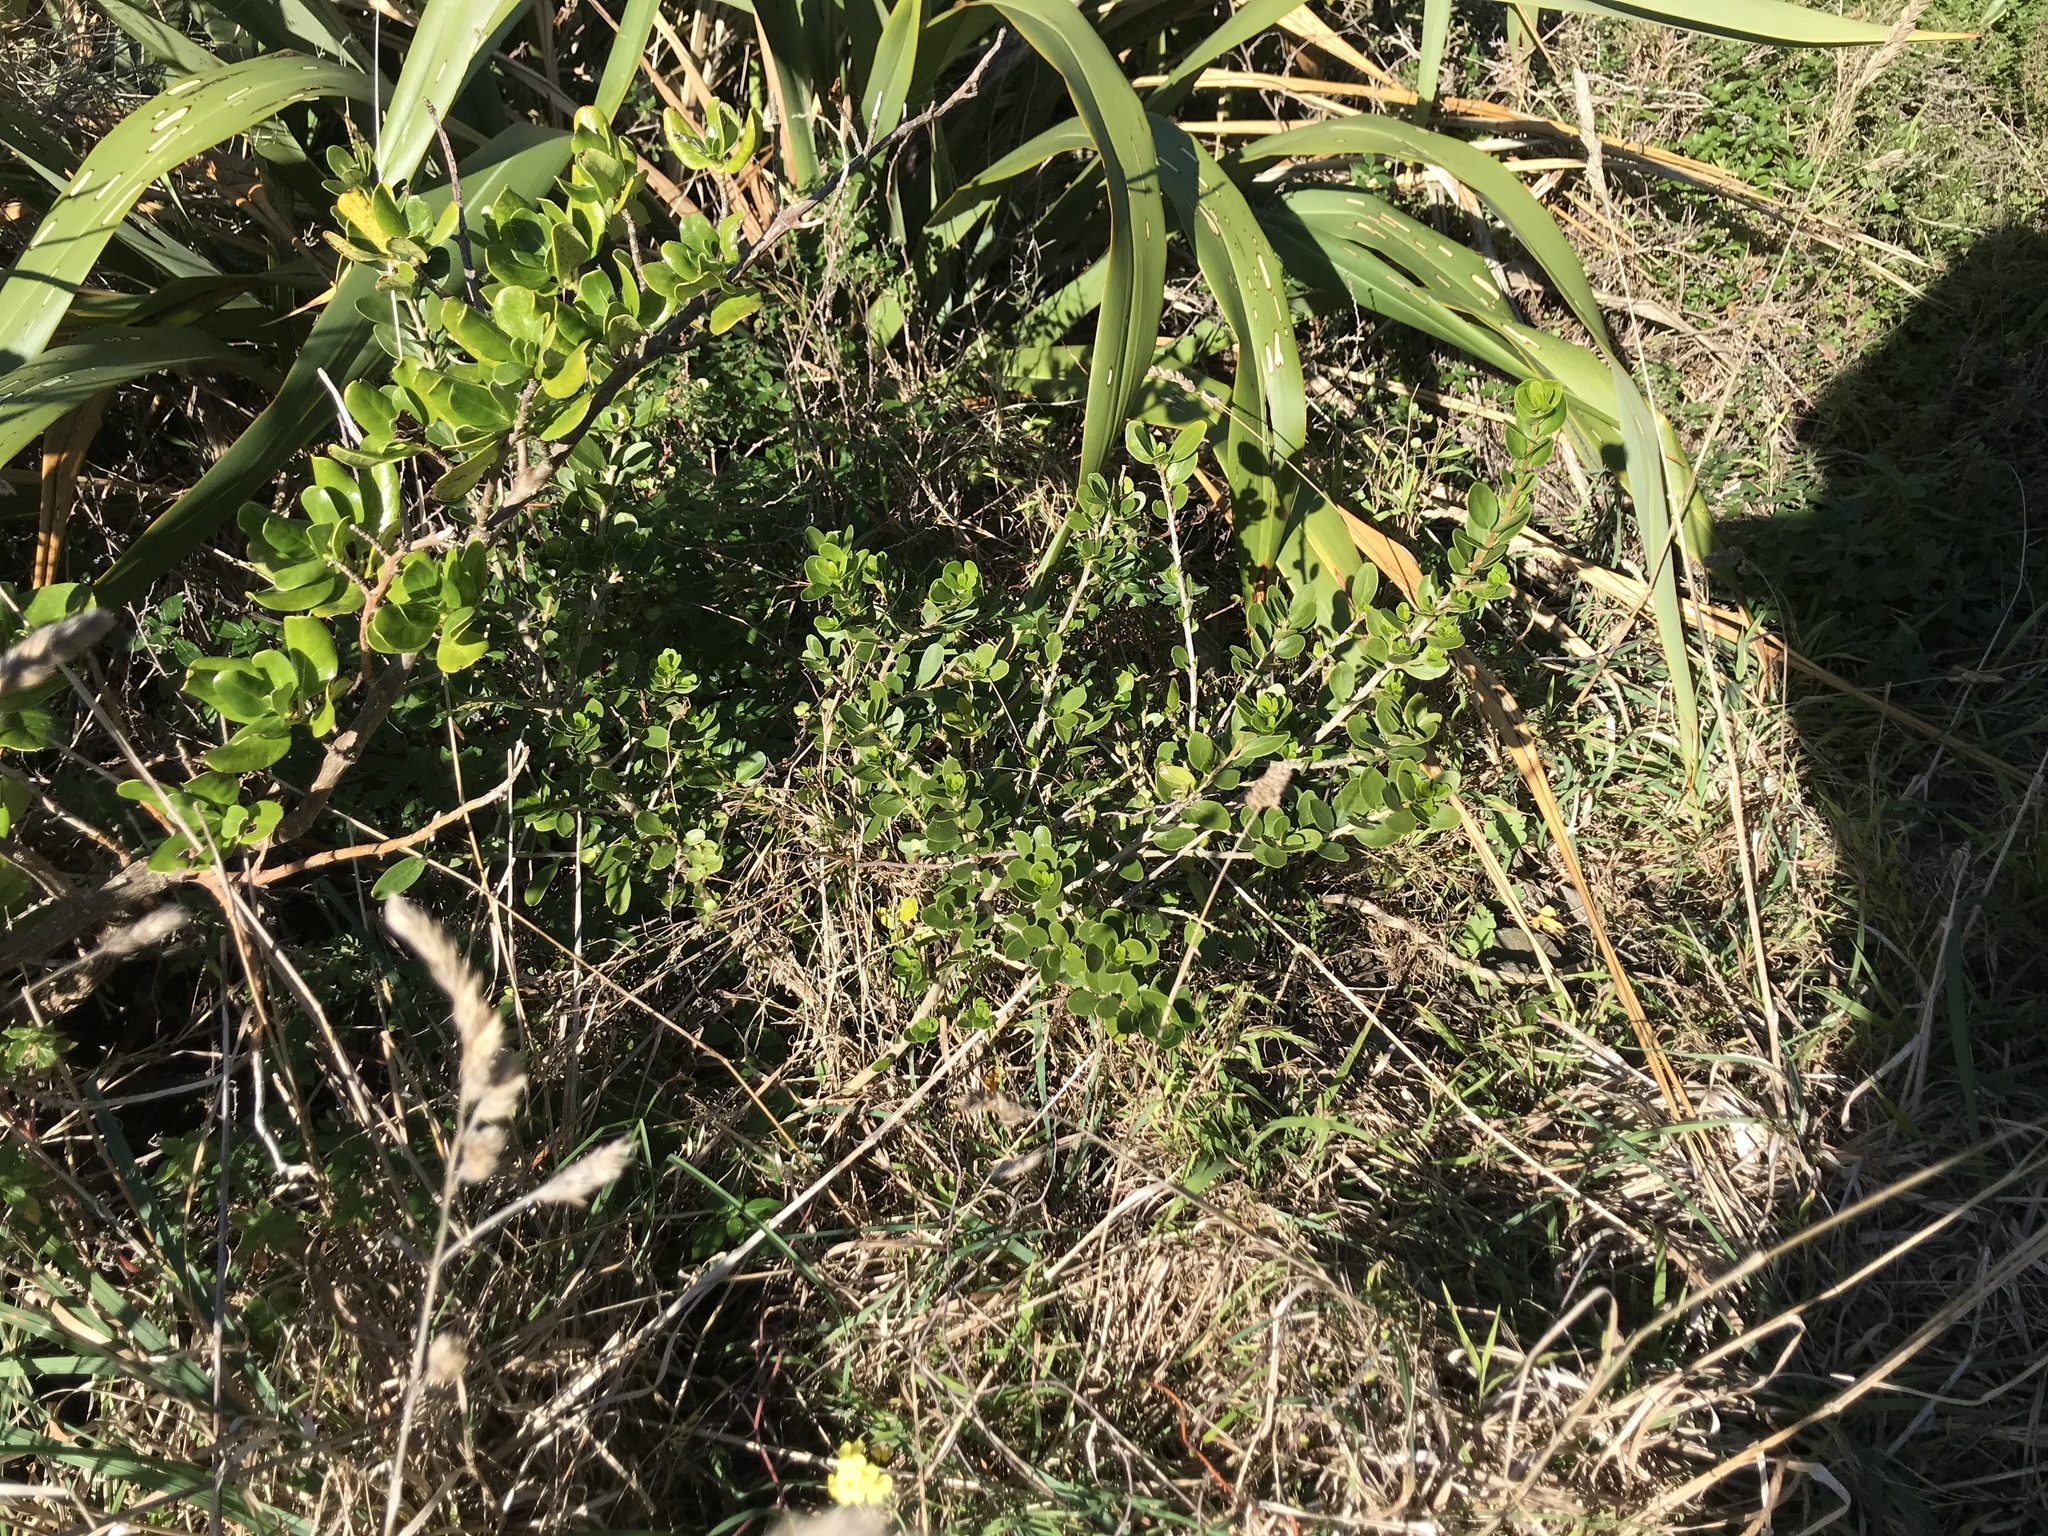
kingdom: Plantae
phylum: Tracheophyta
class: Magnoliopsida
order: Malpighiales
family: Violaceae
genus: Melicytus
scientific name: Melicytus orarius
